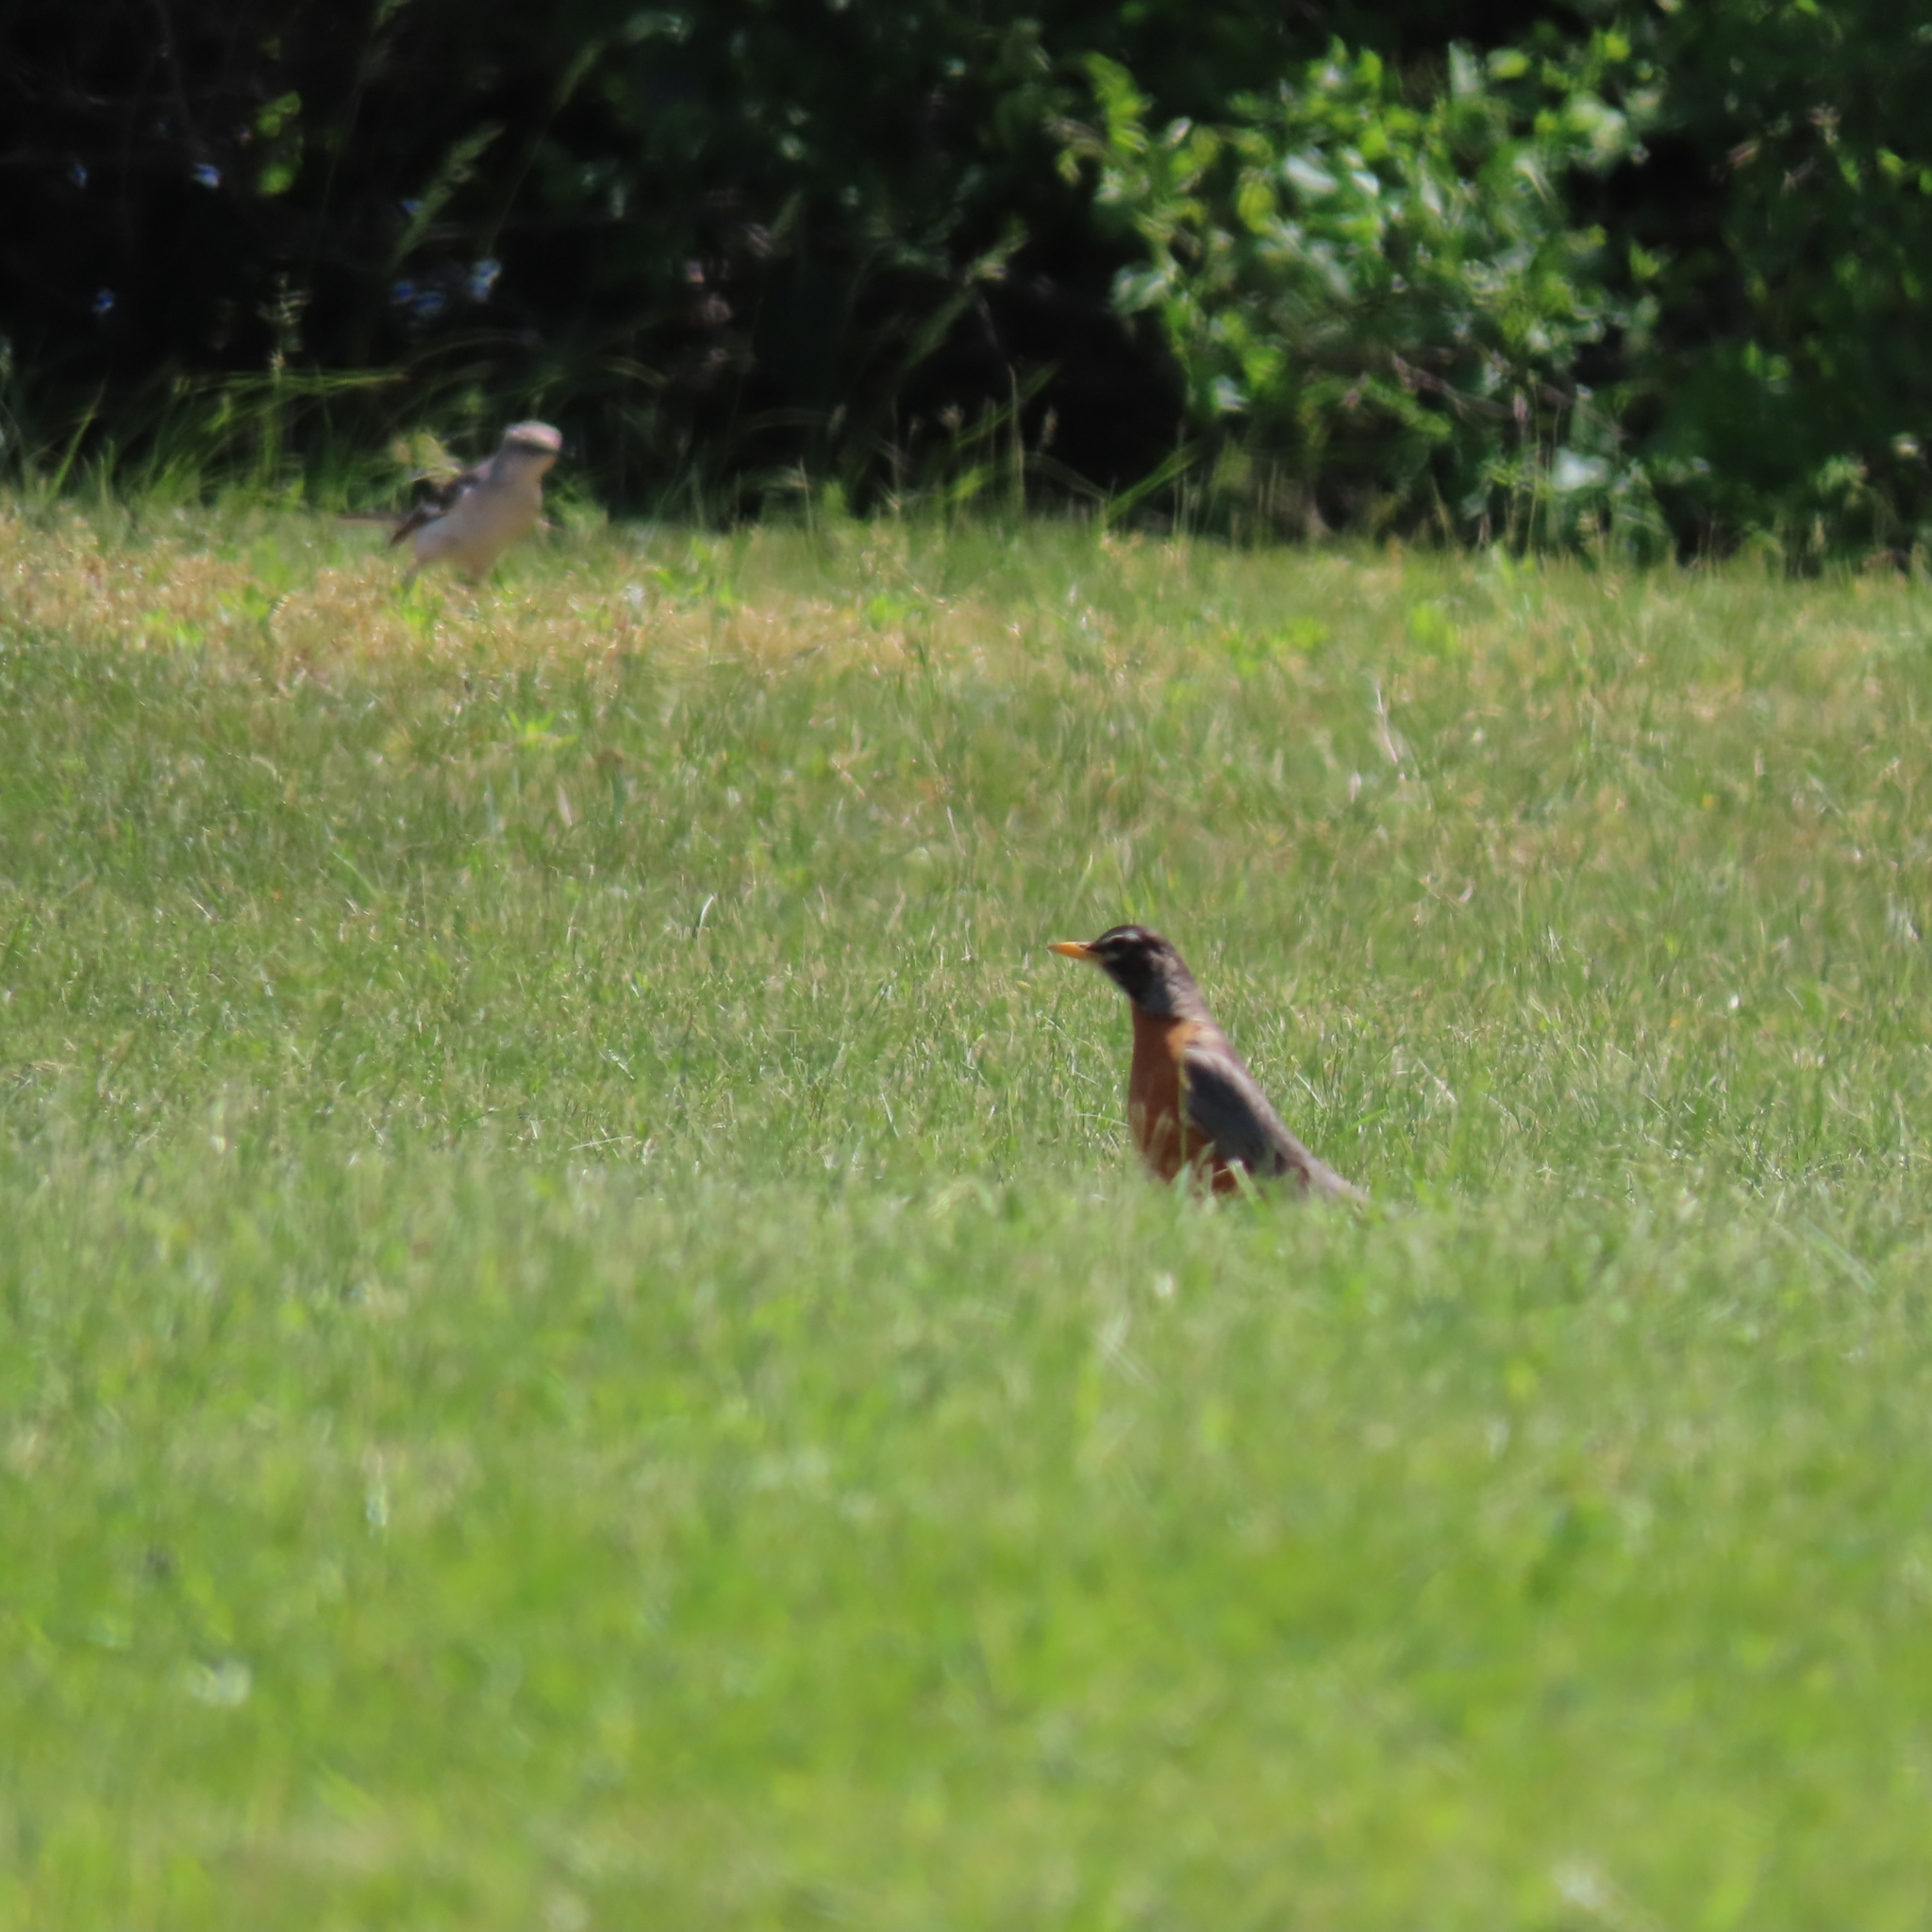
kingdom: Animalia
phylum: Chordata
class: Aves
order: Passeriformes
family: Turdidae
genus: Turdus
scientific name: Turdus migratorius
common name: American robin
